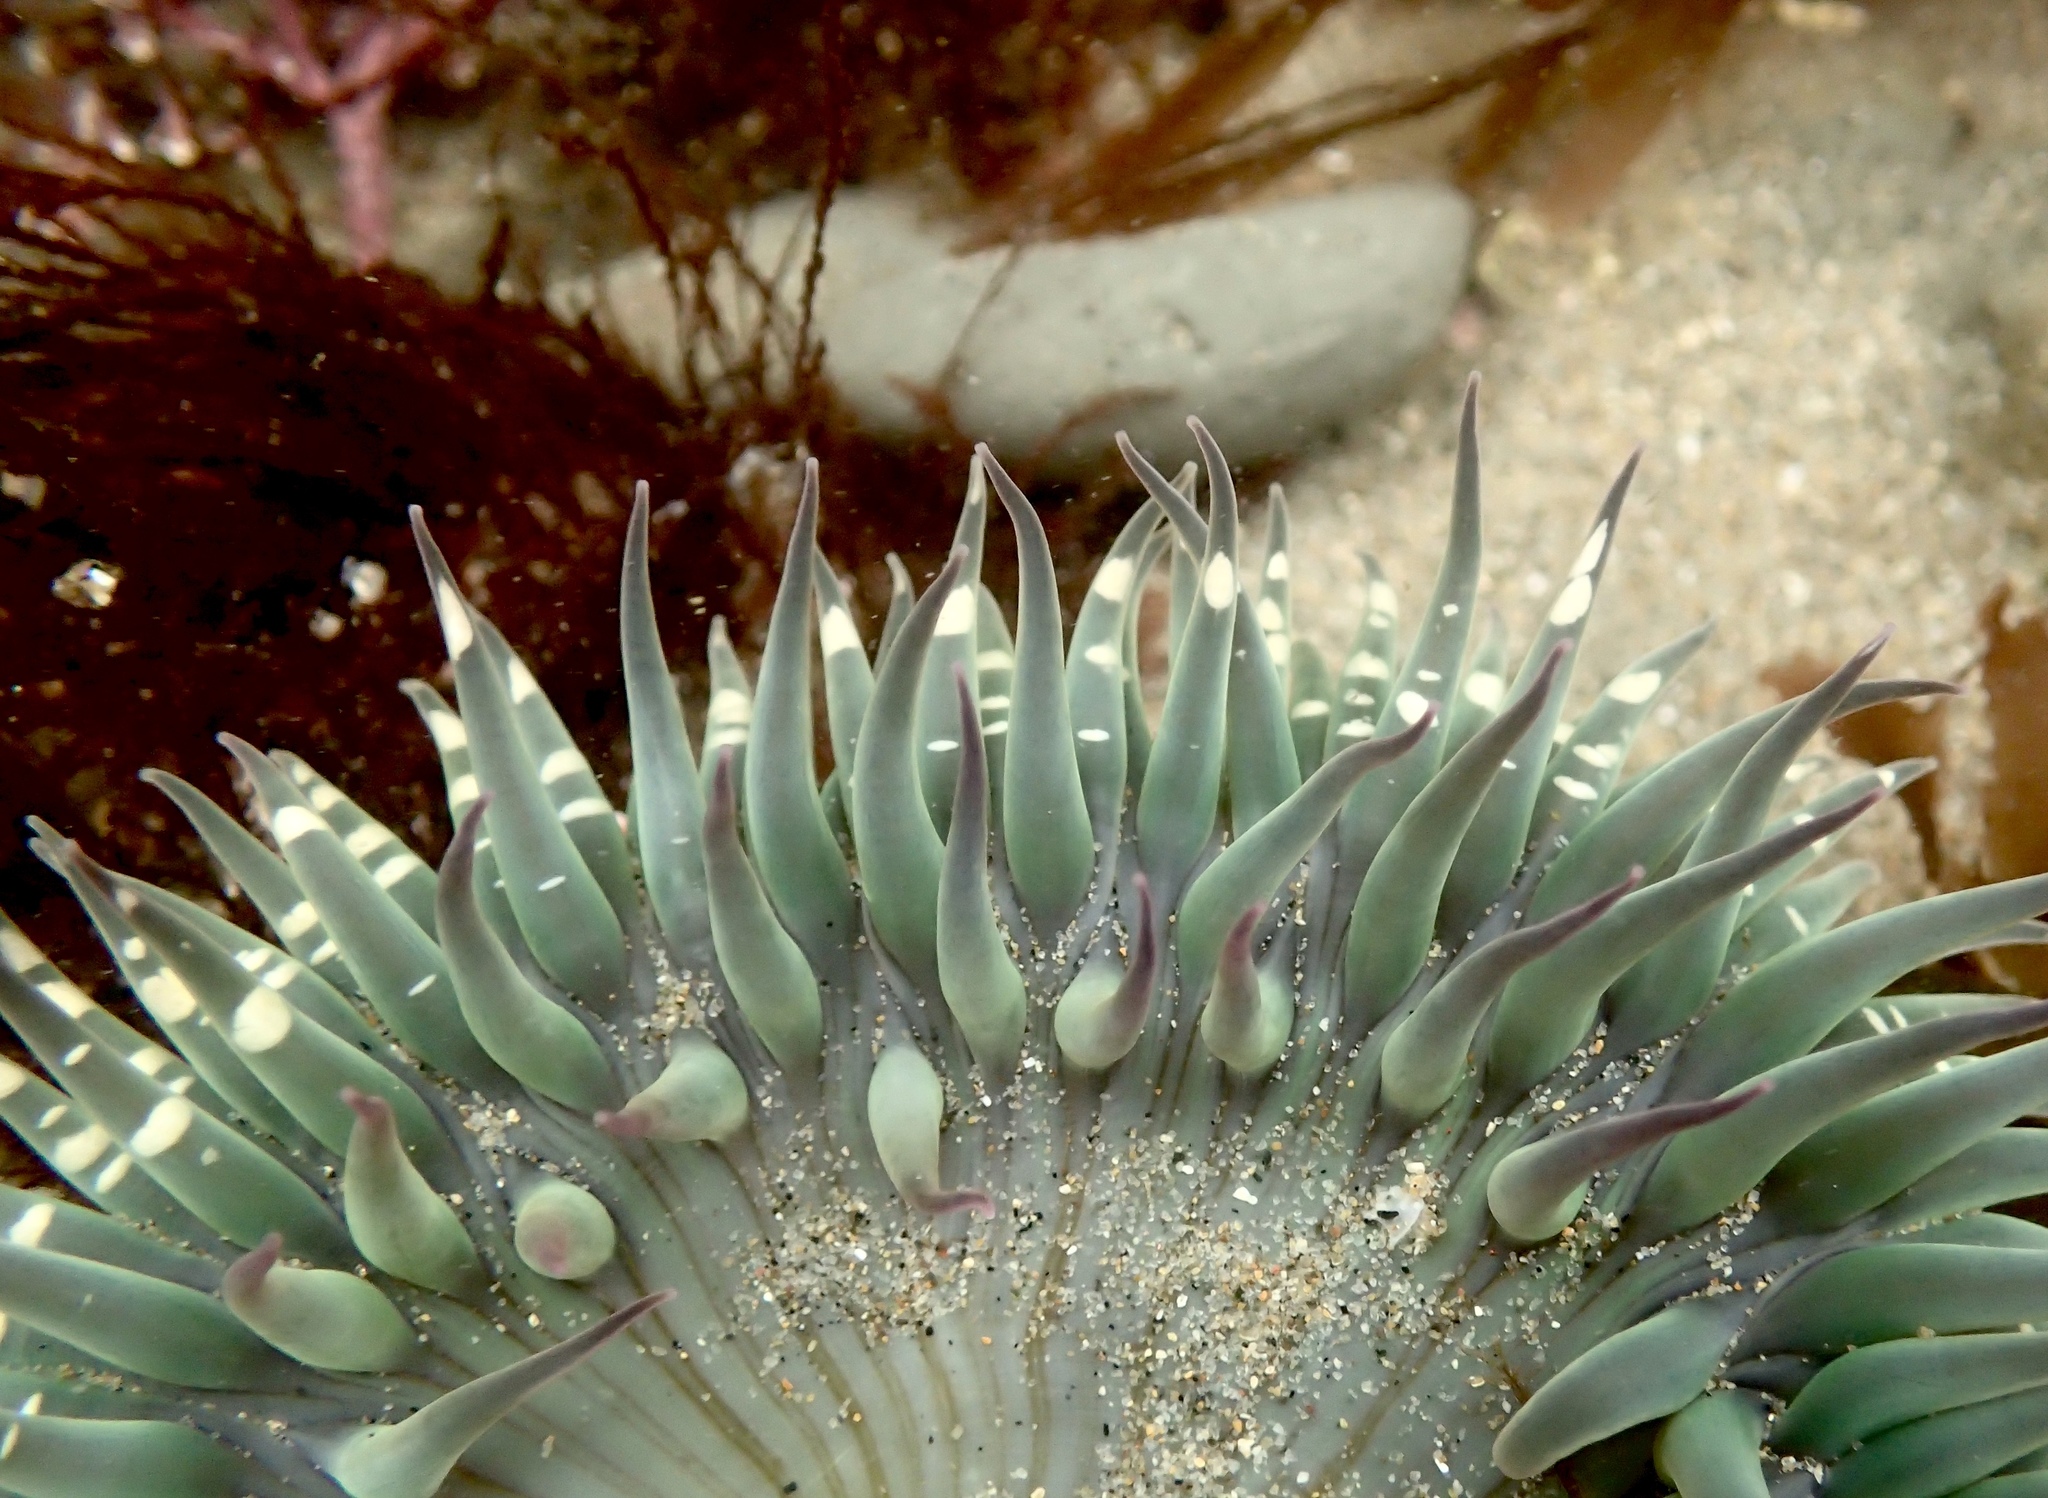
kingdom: Animalia
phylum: Cnidaria
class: Anthozoa
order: Actiniaria
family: Actiniidae
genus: Anthopleura
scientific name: Anthopleura sola
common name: Sun anemone
